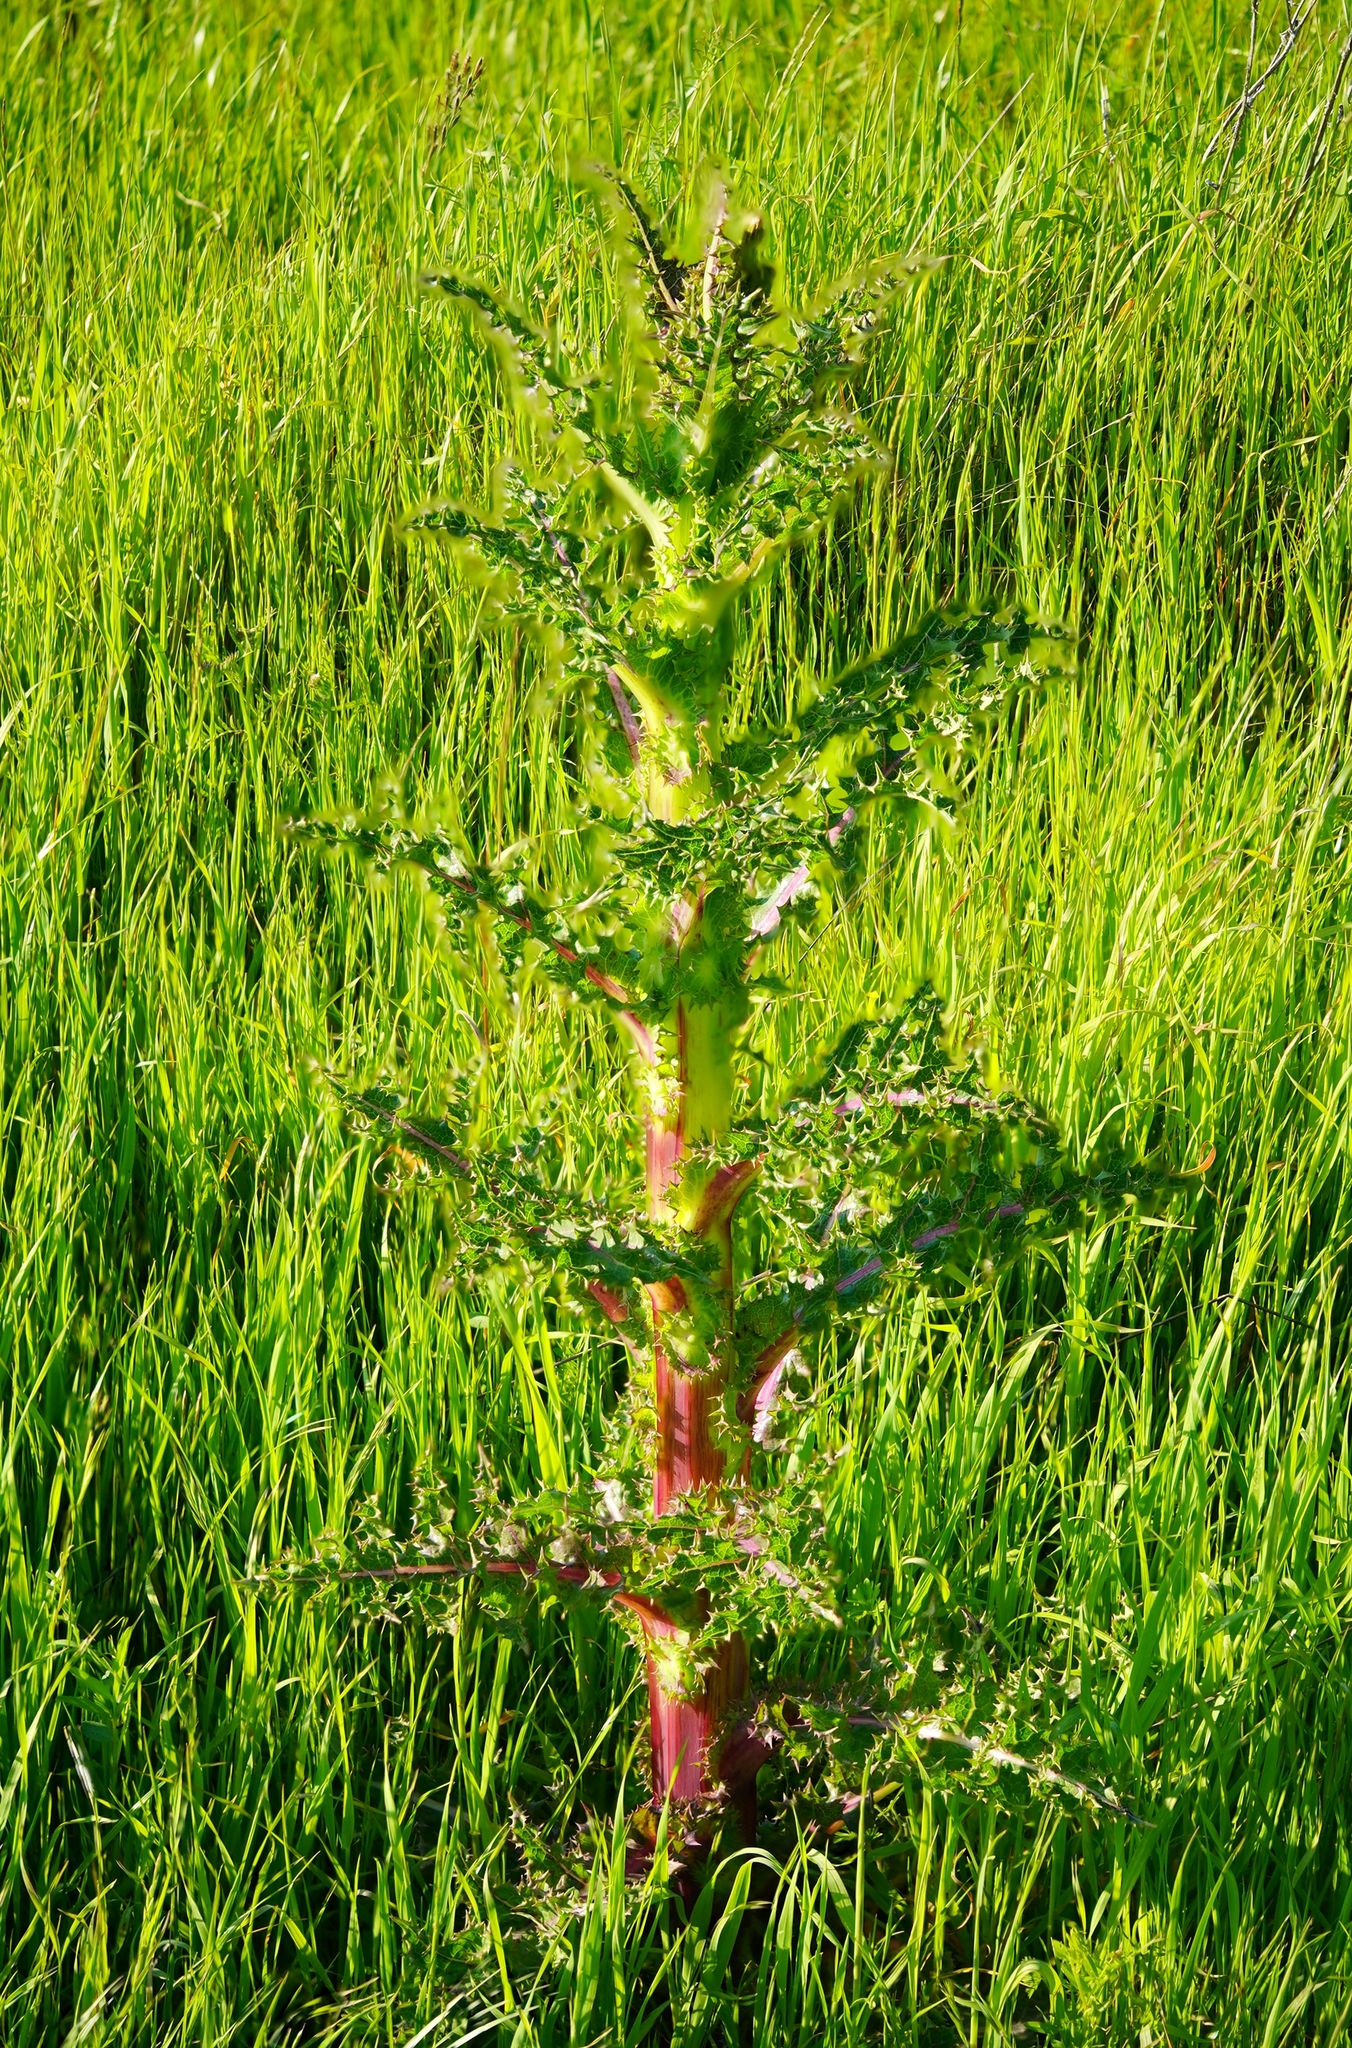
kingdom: Plantae
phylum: Tracheophyta
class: Magnoliopsida
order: Asterales
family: Asteraceae
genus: Sonchus
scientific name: Sonchus asper
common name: Prickly sow-thistle
